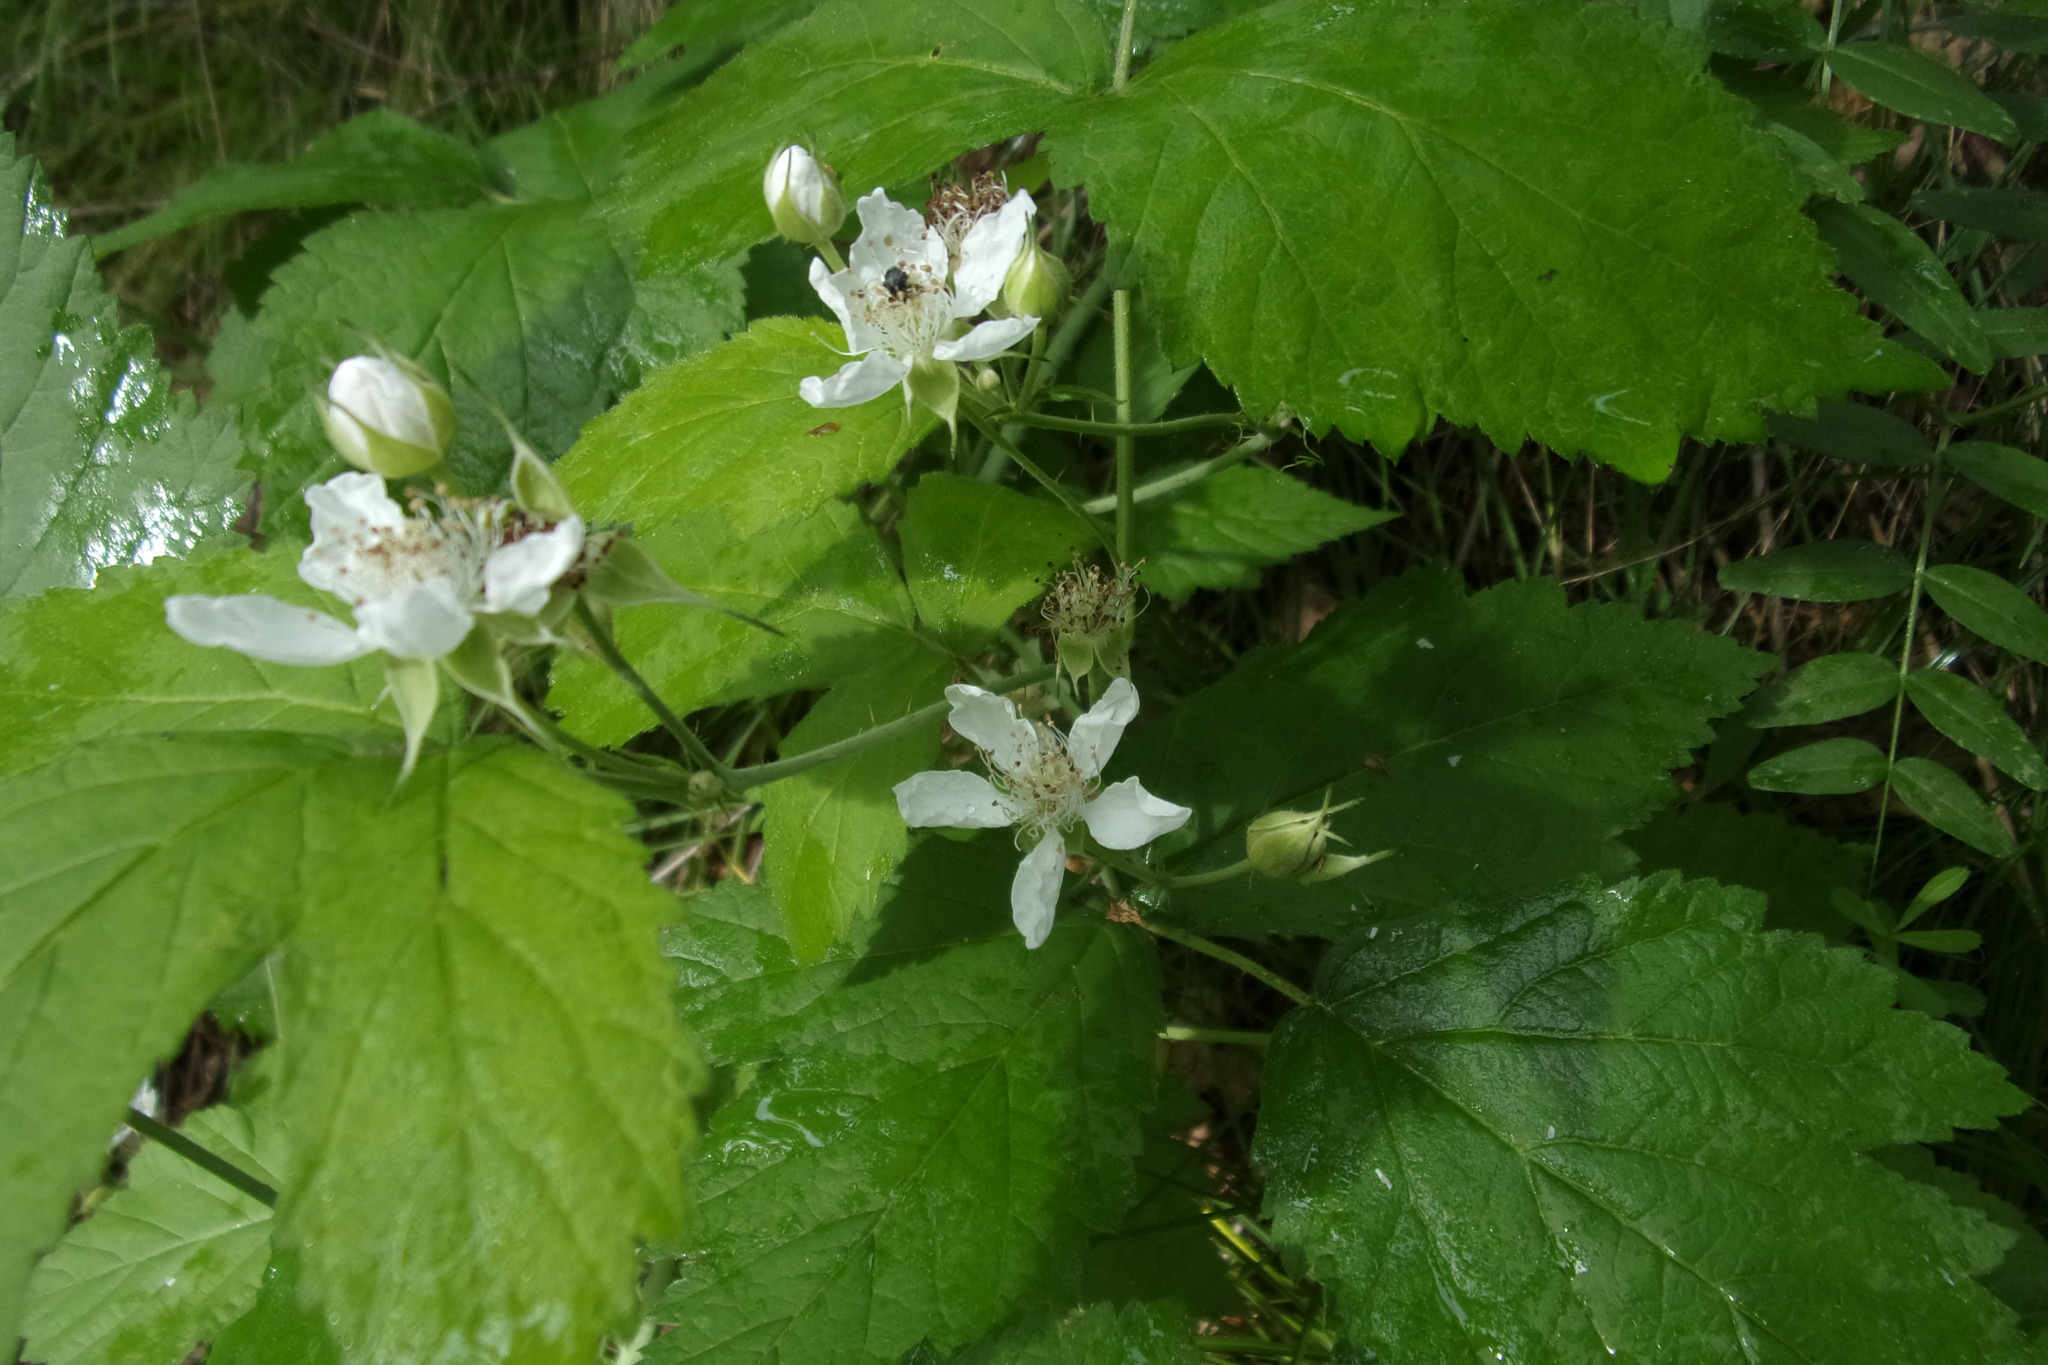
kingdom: Plantae
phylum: Tracheophyta
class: Magnoliopsida
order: Rosales
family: Rosaceae
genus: Rubus
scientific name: Rubus caesius
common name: Dewberry
